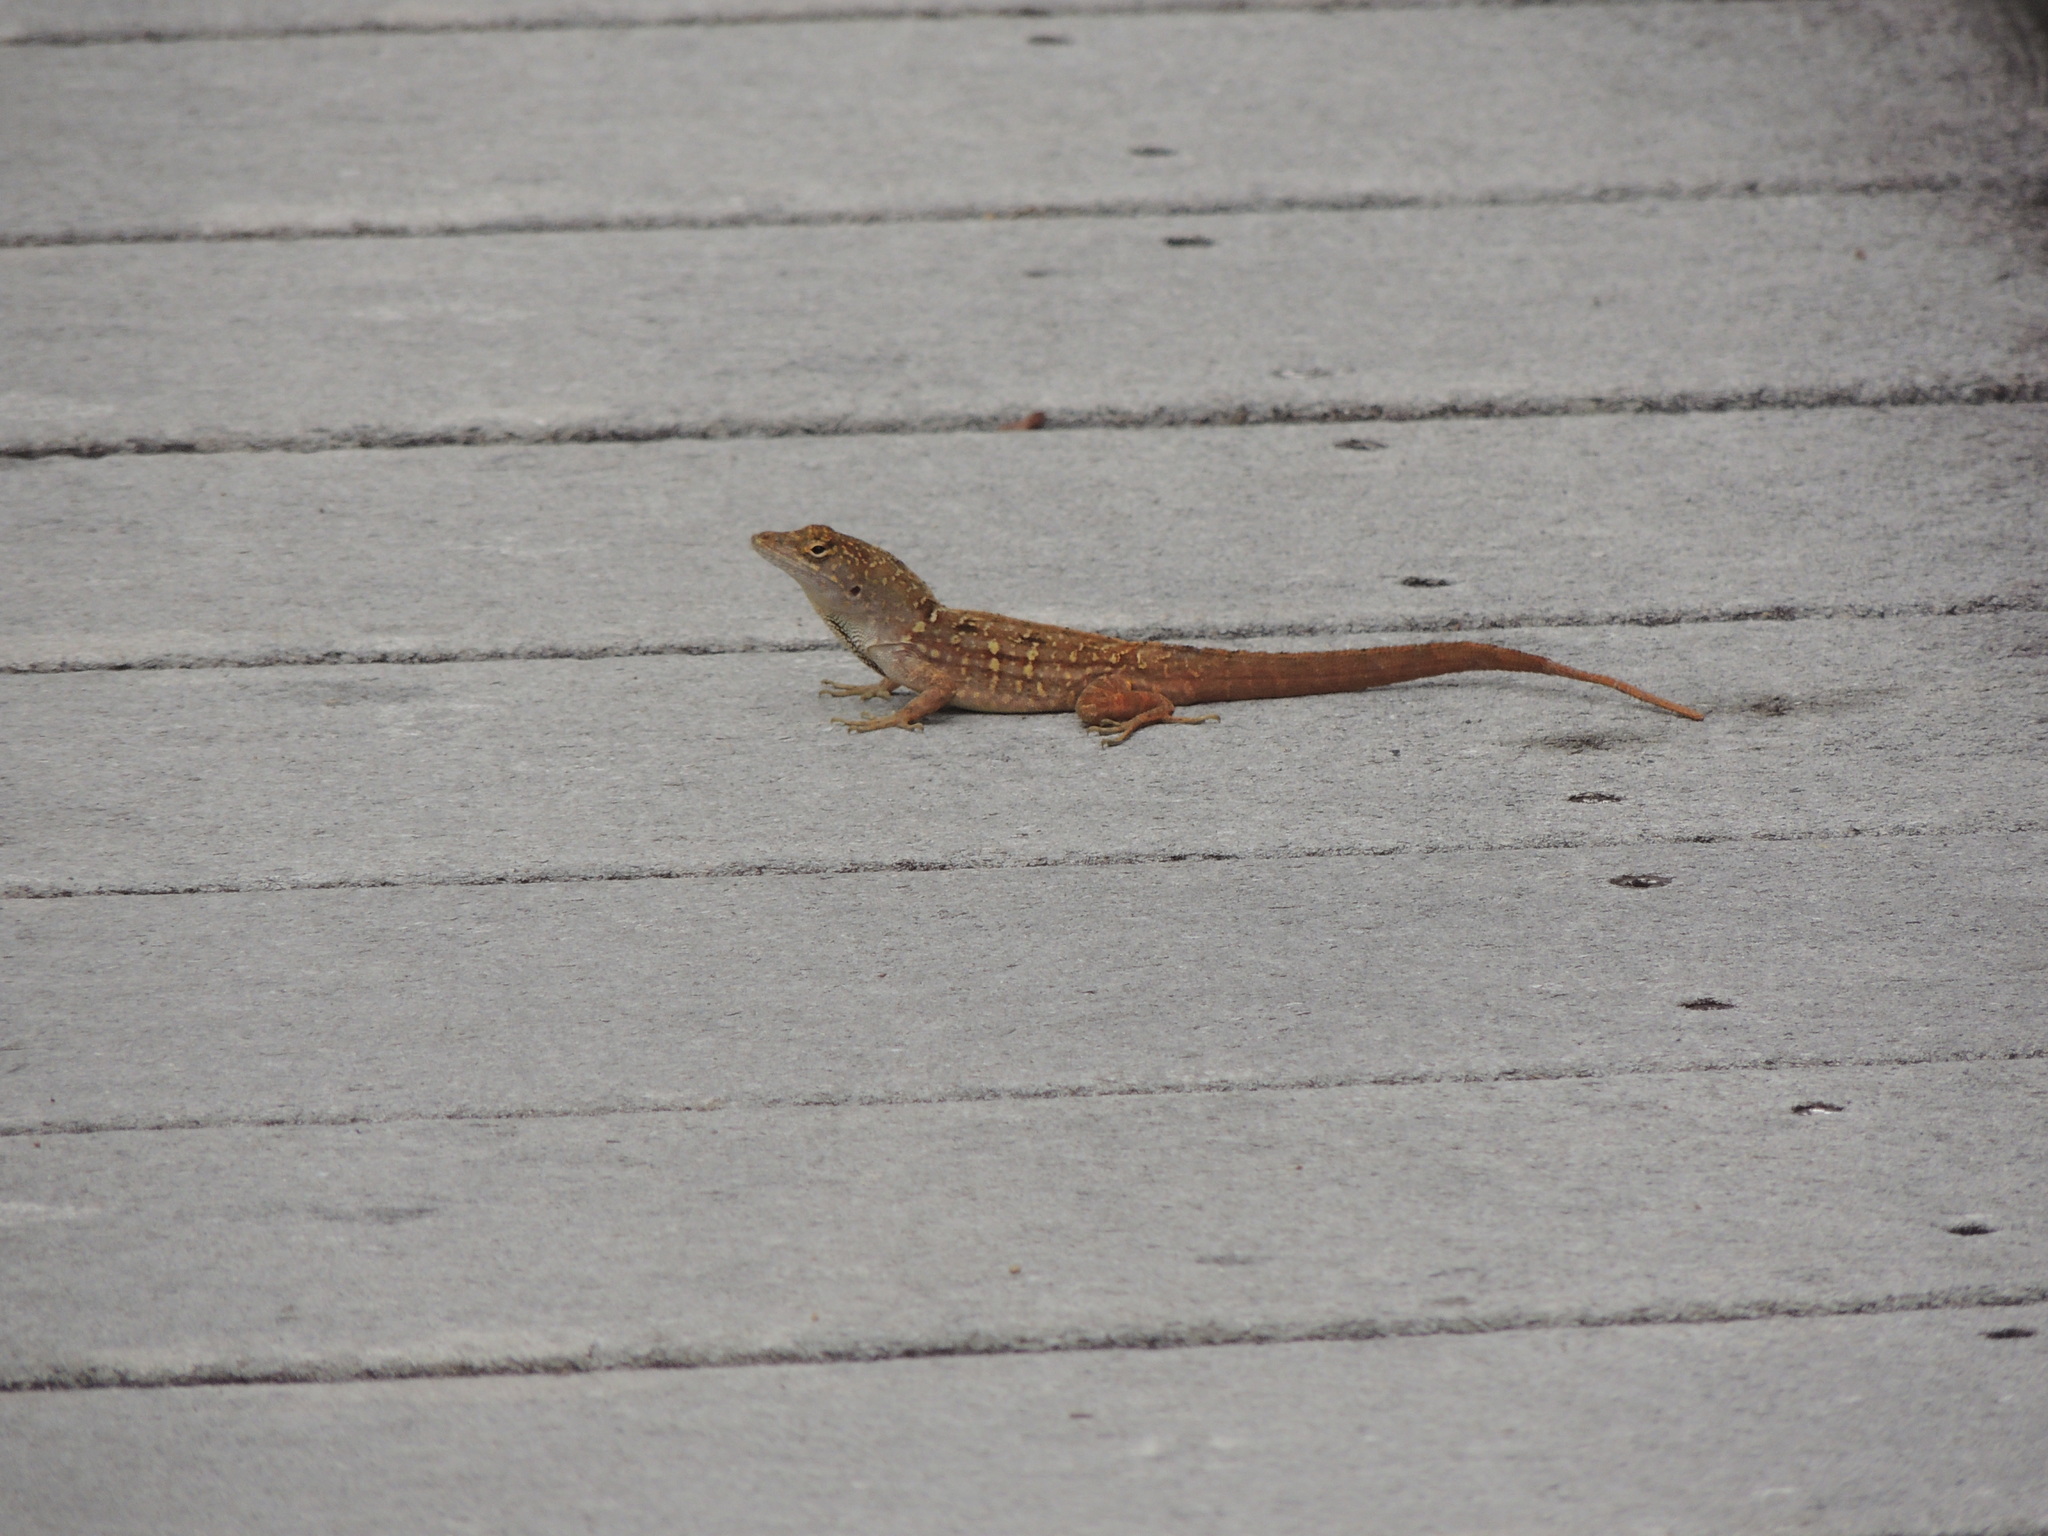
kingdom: Animalia
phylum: Chordata
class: Squamata
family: Dactyloidae
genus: Anolis
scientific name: Anolis sagrei
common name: Brown anole
